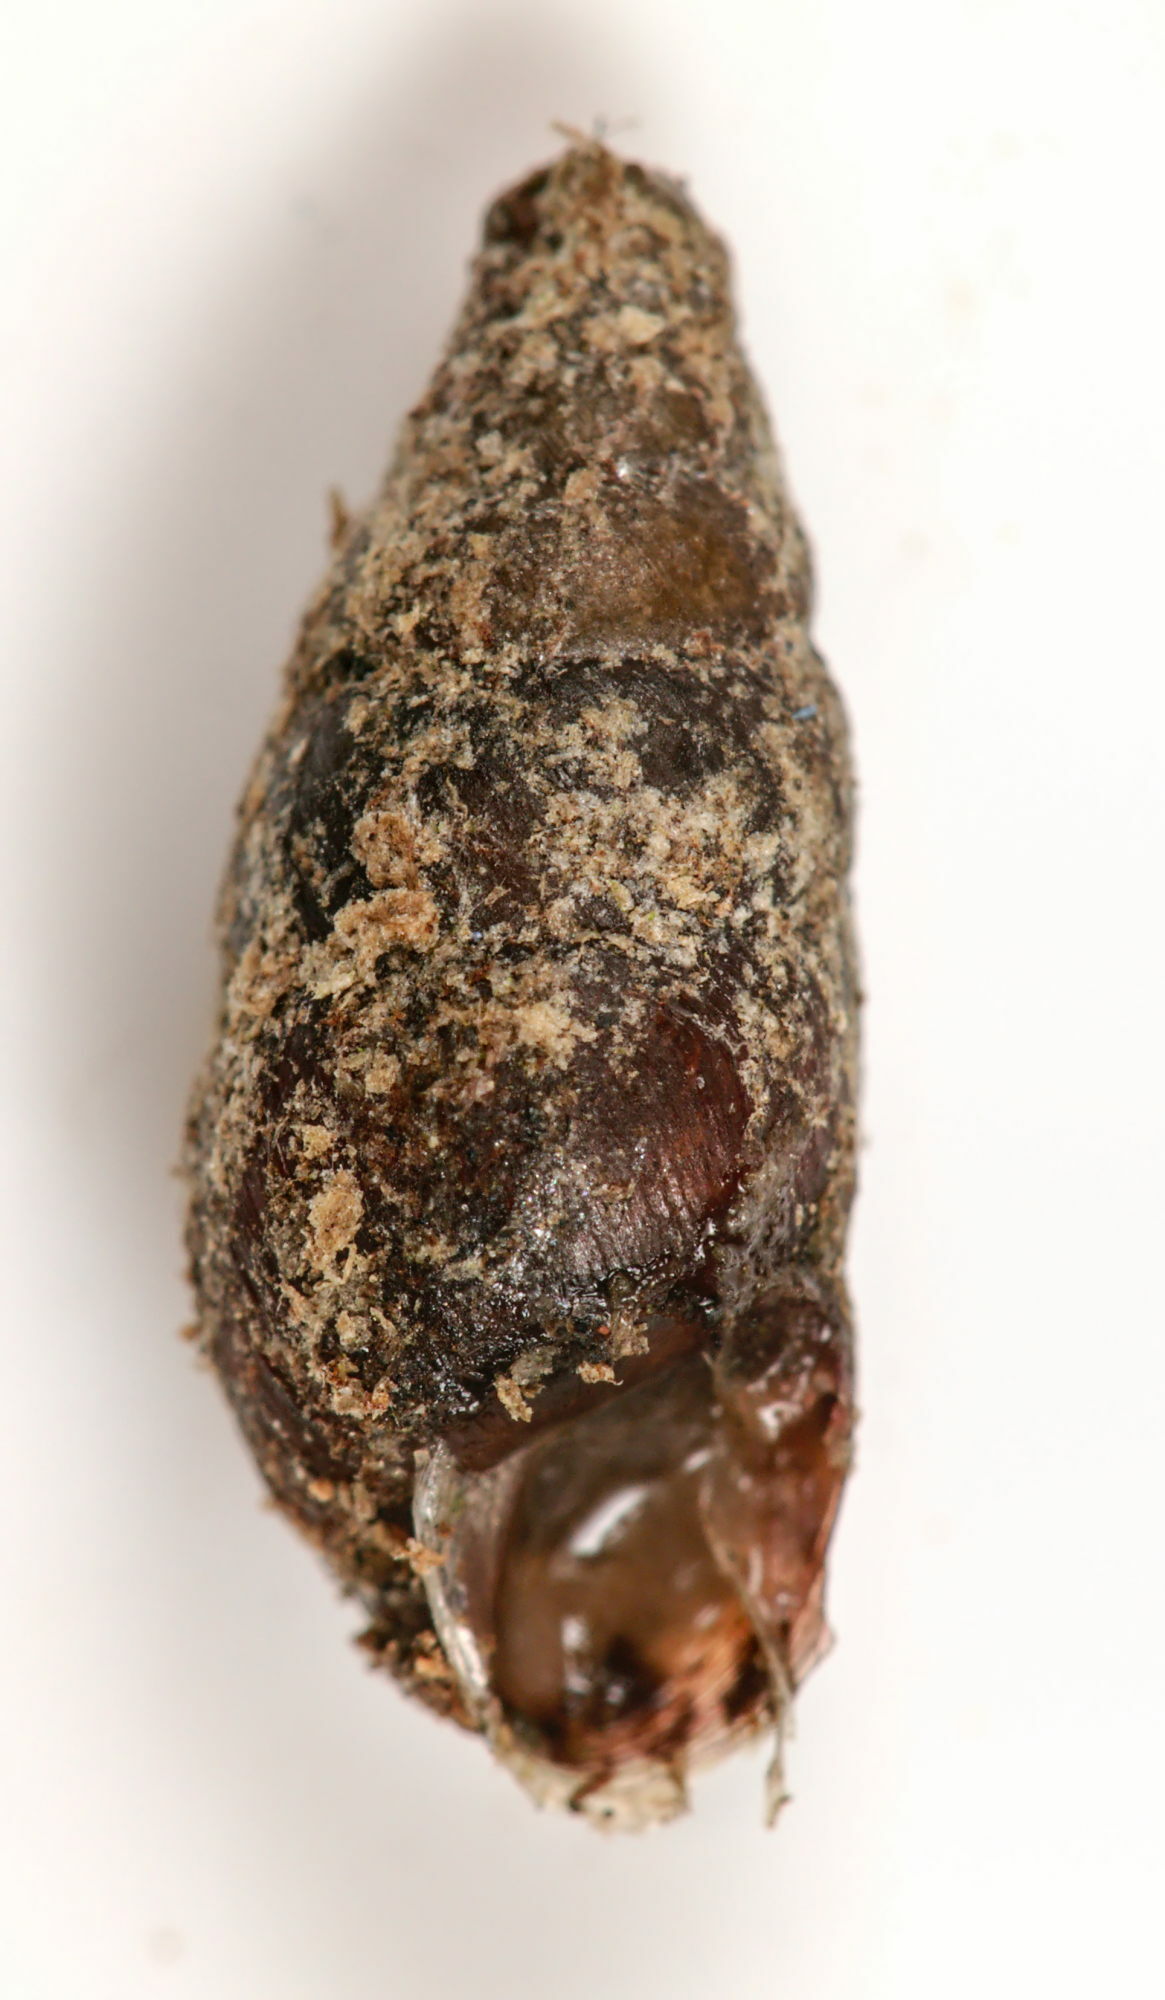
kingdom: Animalia
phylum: Mollusca
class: Gastropoda
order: Stylommatophora
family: Enidae
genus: Merdigera
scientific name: Merdigera obscura
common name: Lesser bulin
